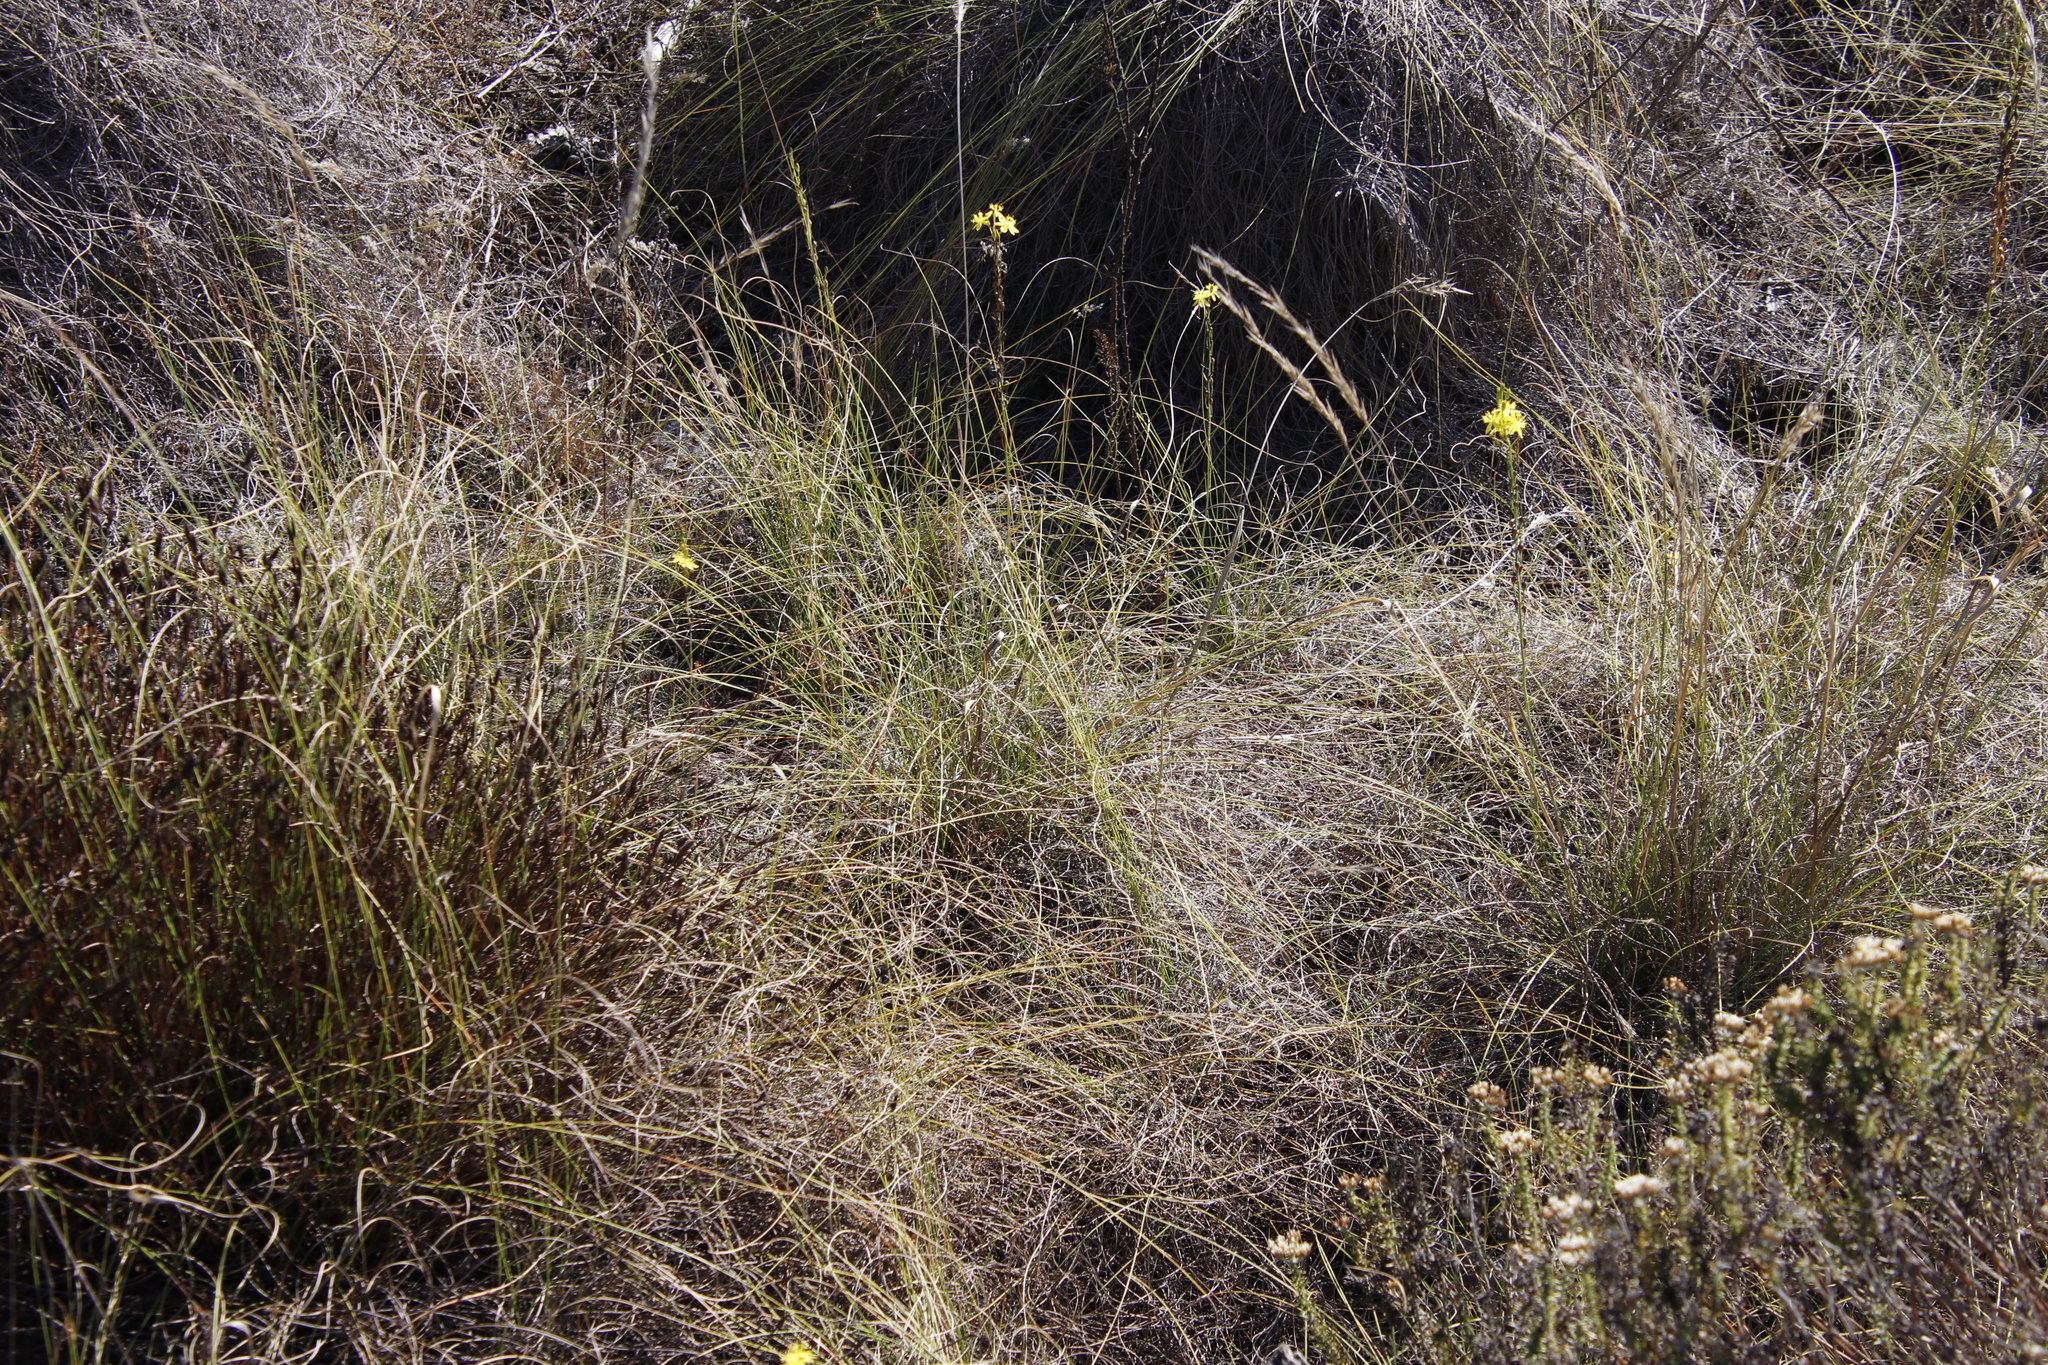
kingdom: Plantae
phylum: Tracheophyta
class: Liliopsida
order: Asparagales
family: Asphodelaceae
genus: Bulbine
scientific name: Bulbine favosa
